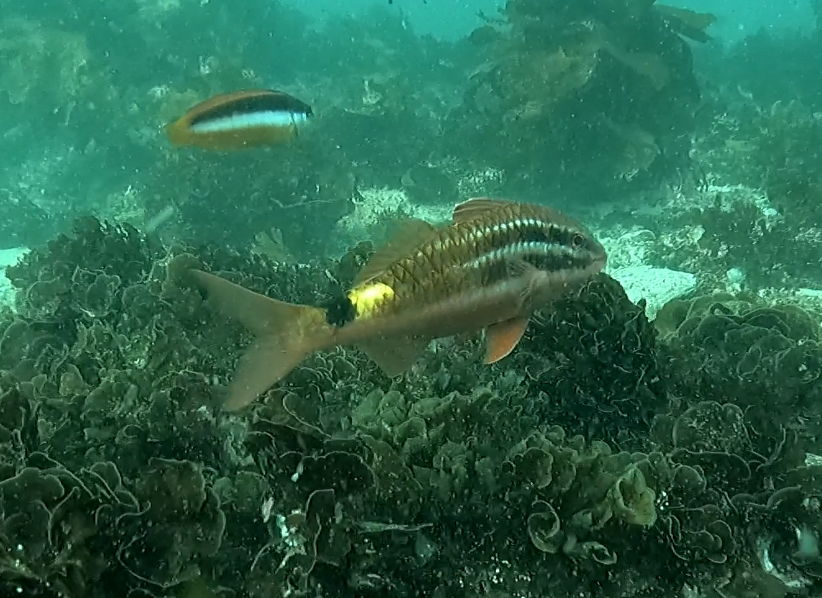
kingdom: Animalia
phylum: Chordata
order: Perciformes
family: Mullidae
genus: Parupeneus
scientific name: Parupeneus spilurus
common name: Blackspot goatfish
